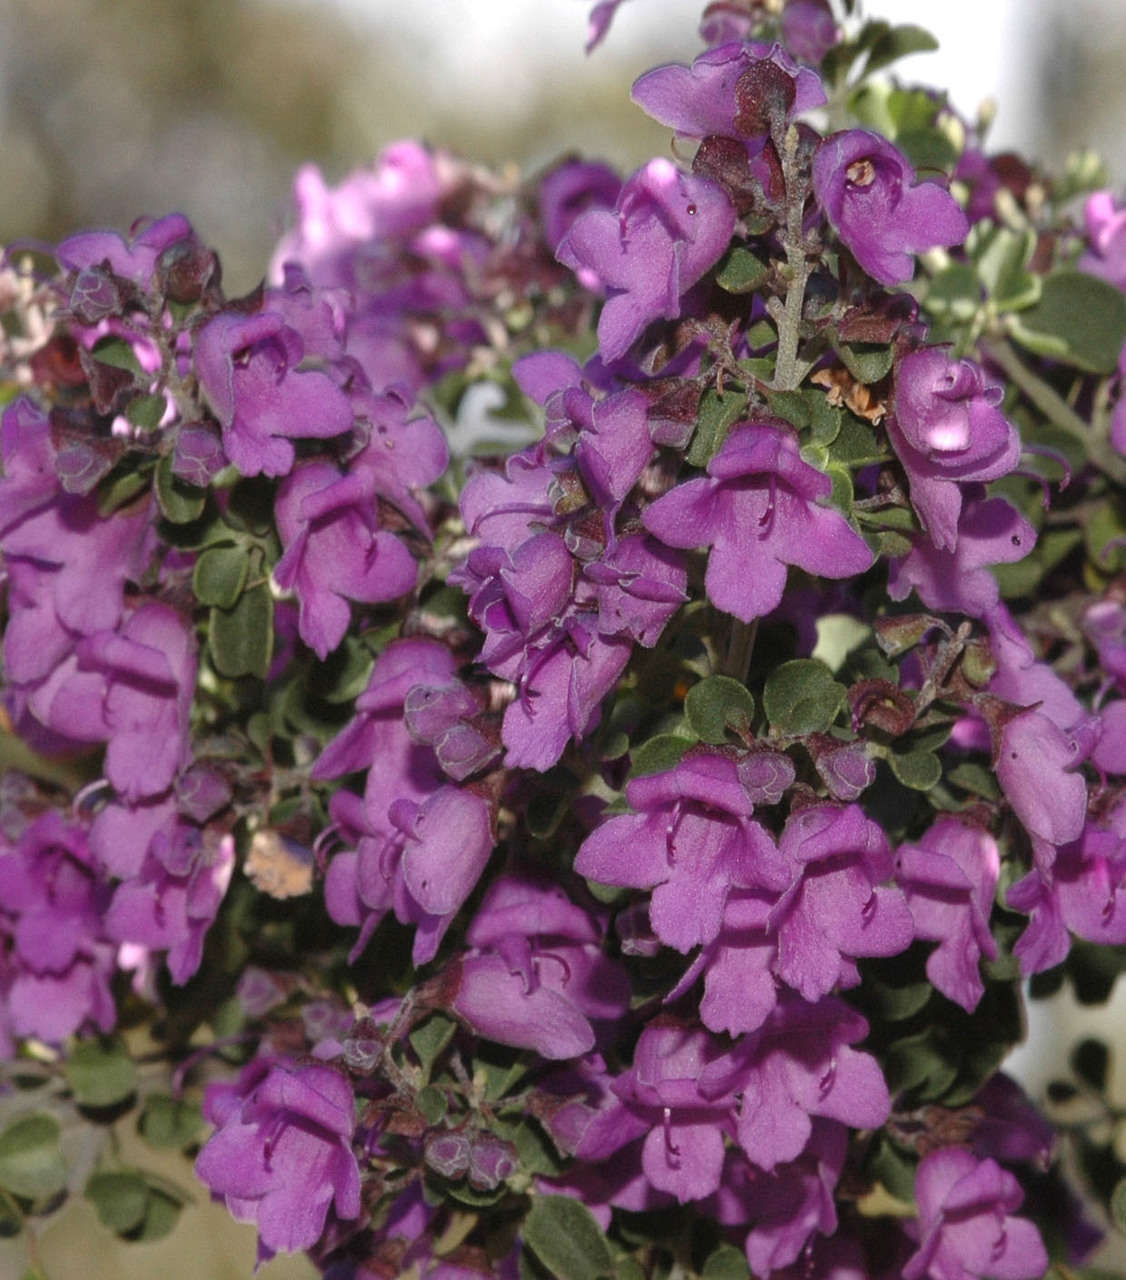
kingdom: Plantae
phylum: Tracheophyta
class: Magnoliopsida
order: Lamiales
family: Lamiaceae
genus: Prostanthera
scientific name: Prostanthera rotundifolia
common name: Round-leaf mintbush
